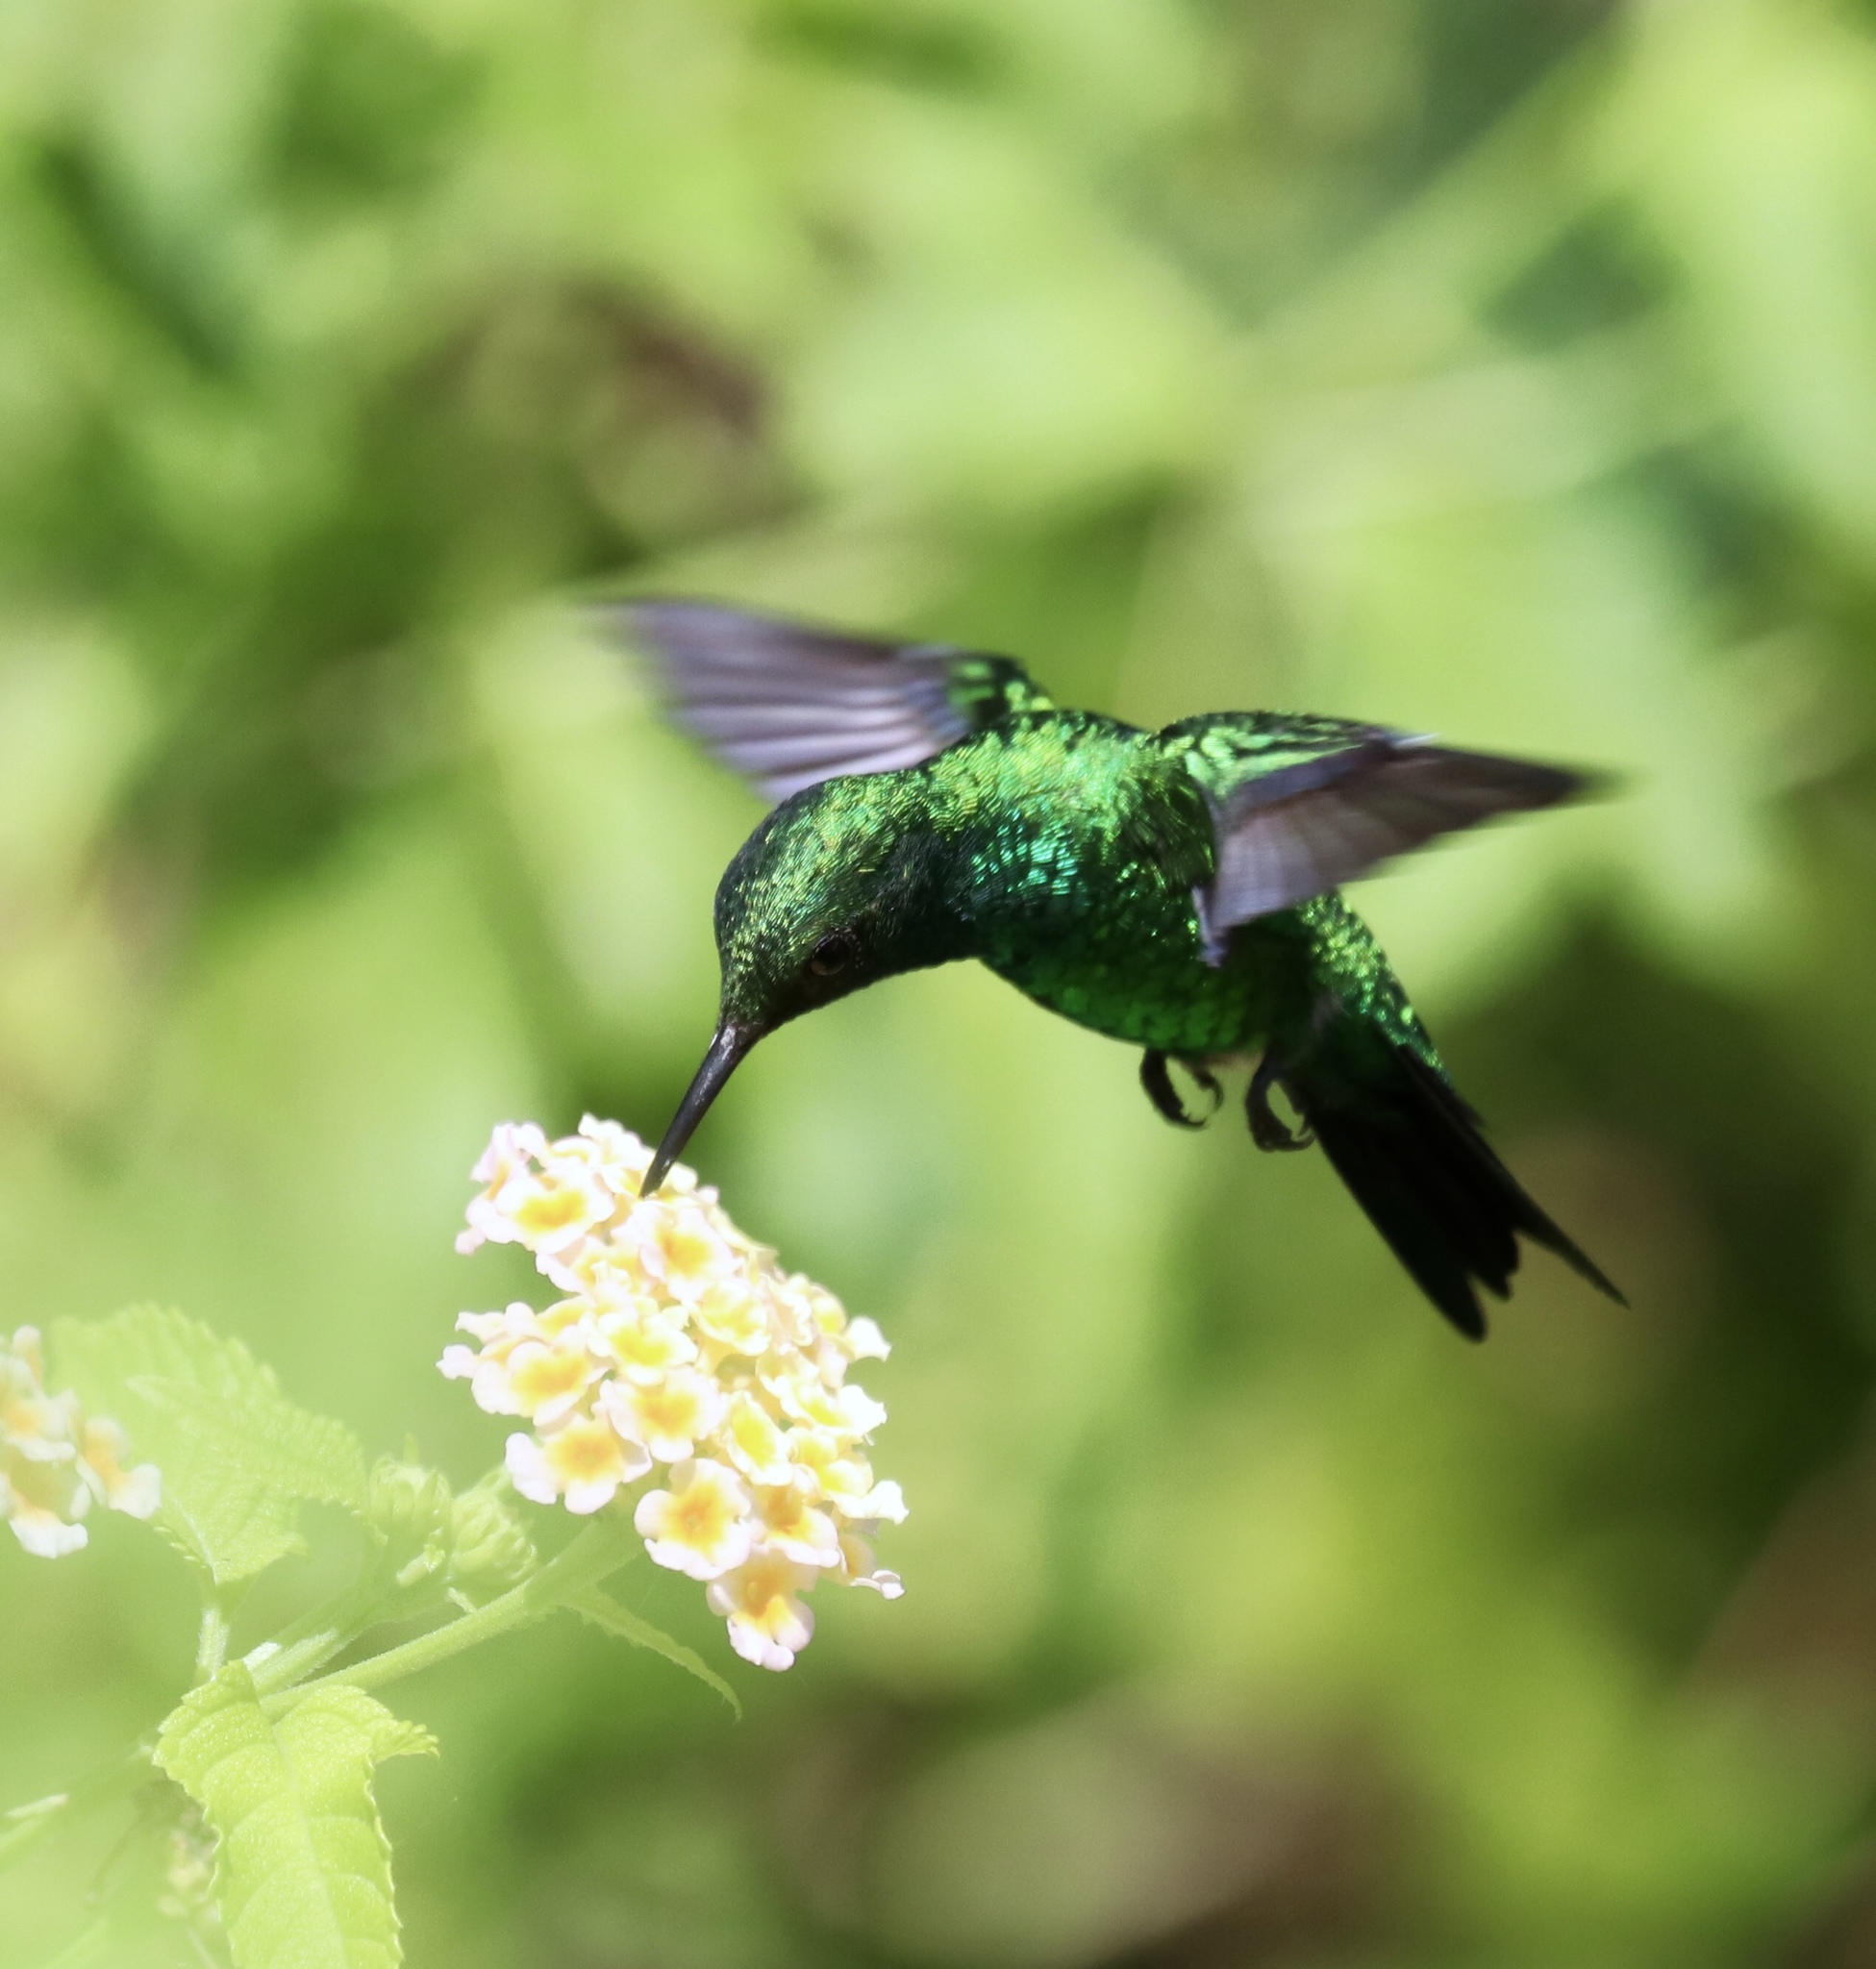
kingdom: Animalia
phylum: Chordata
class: Aves
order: Apodiformes
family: Trochilidae
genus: Chlorostilbon
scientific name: Chlorostilbon assimilis
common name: Garden emerald
